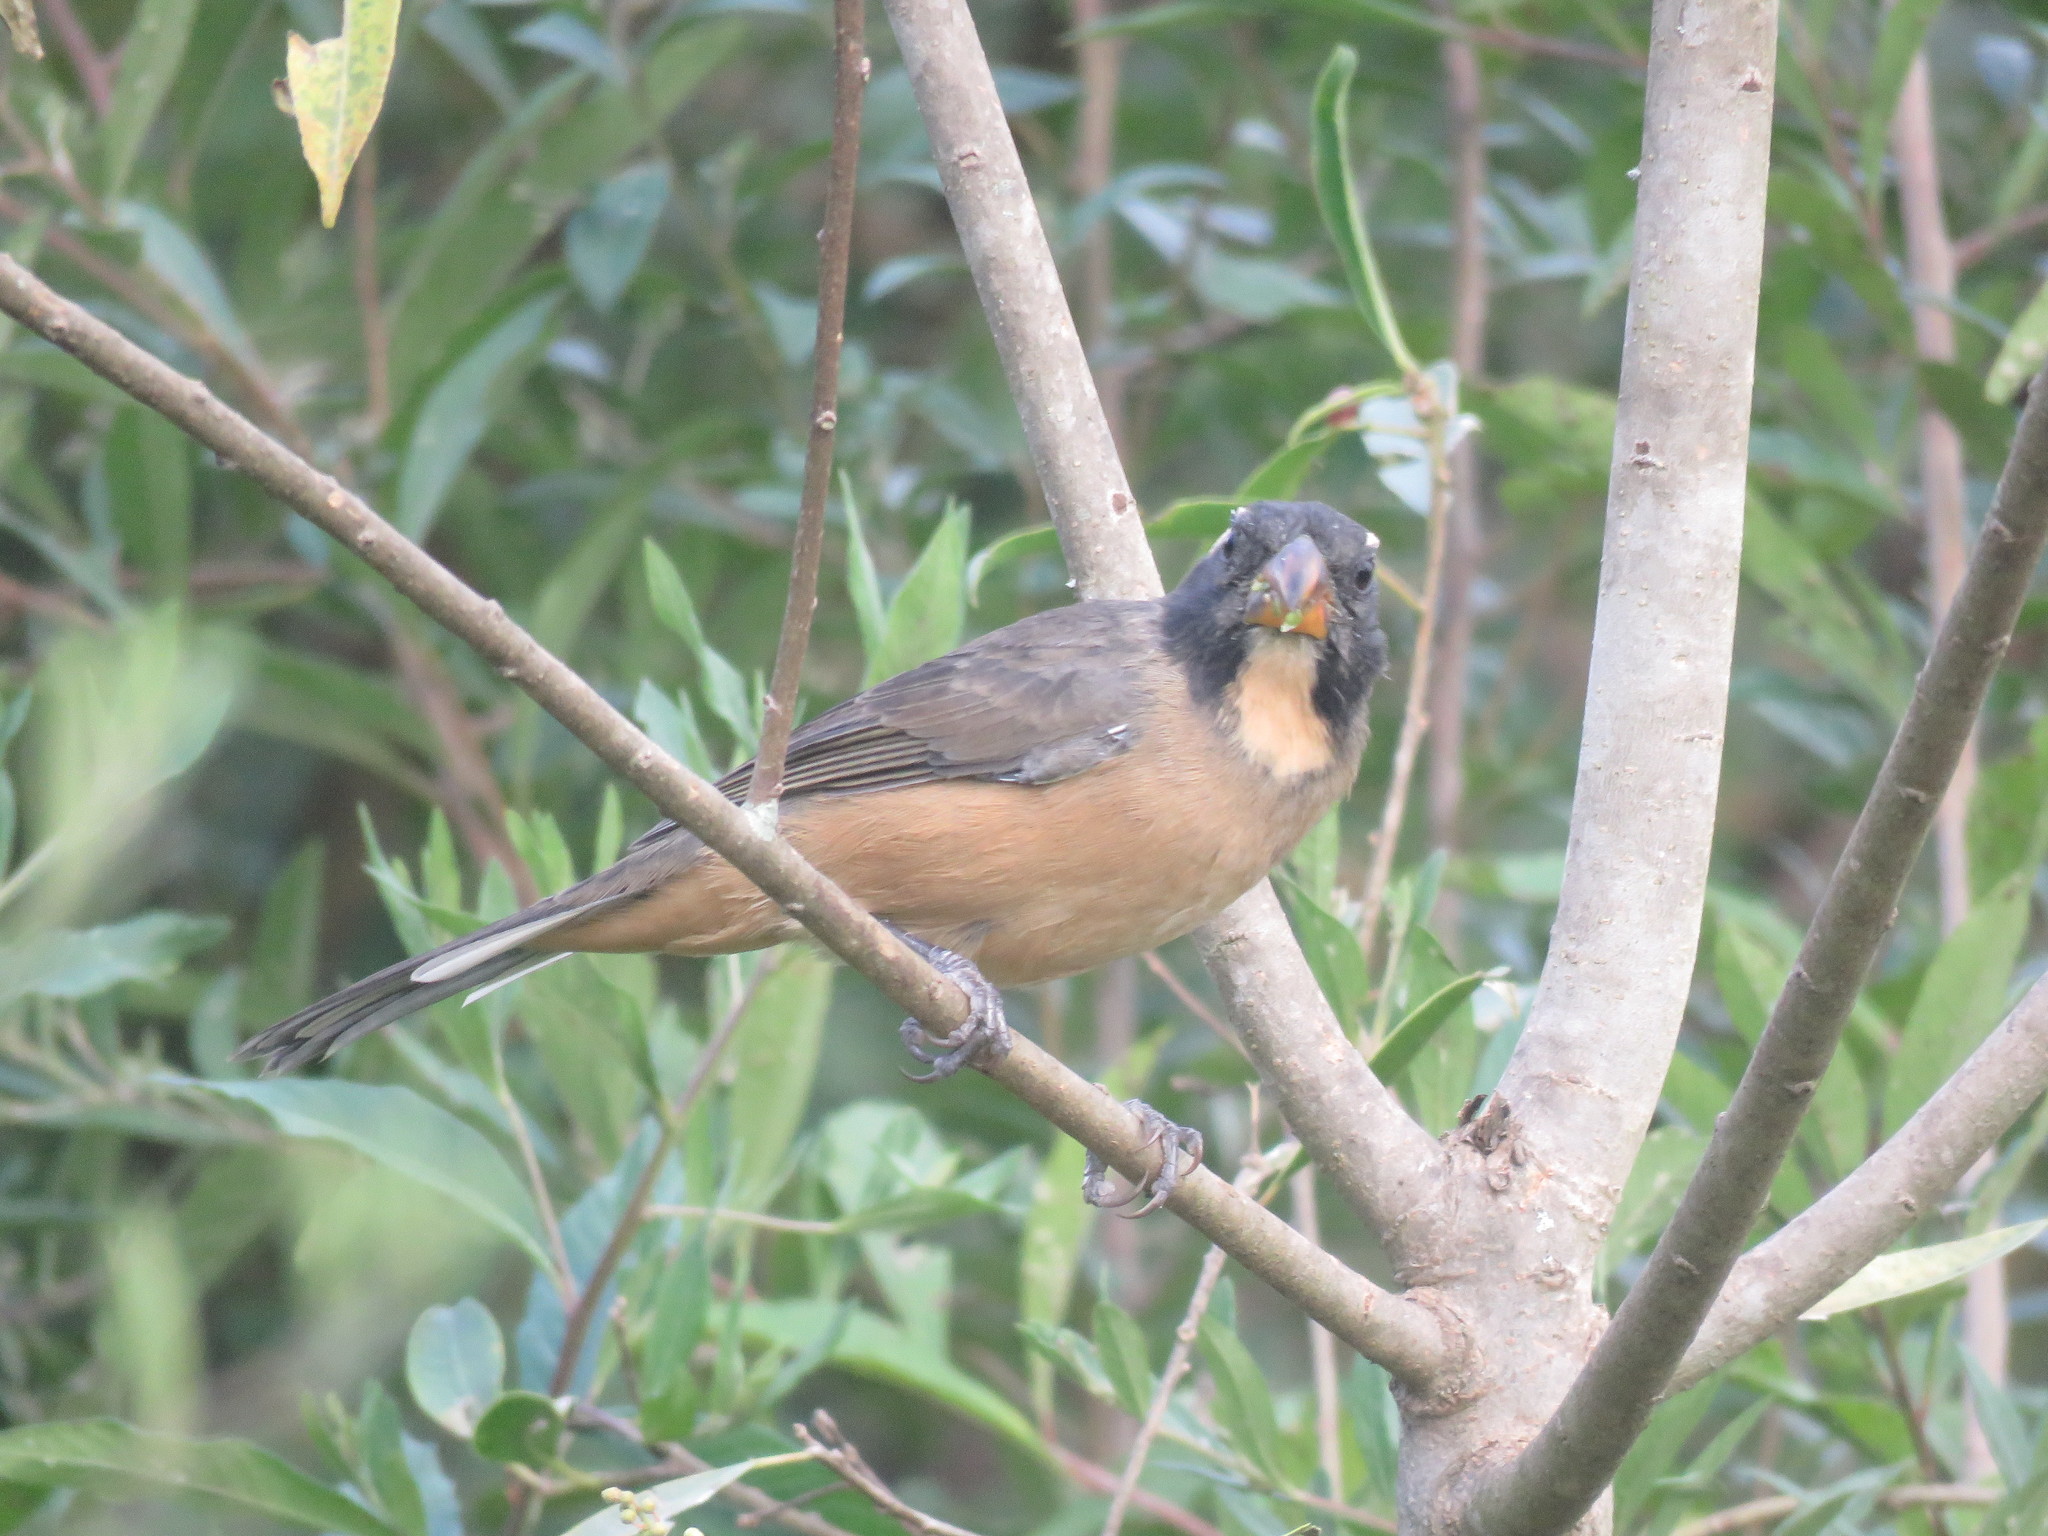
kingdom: Animalia
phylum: Chordata
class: Aves
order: Passeriformes
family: Thraupidae
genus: Saltator
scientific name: Saltator coerulescens
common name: Grayish saltator
